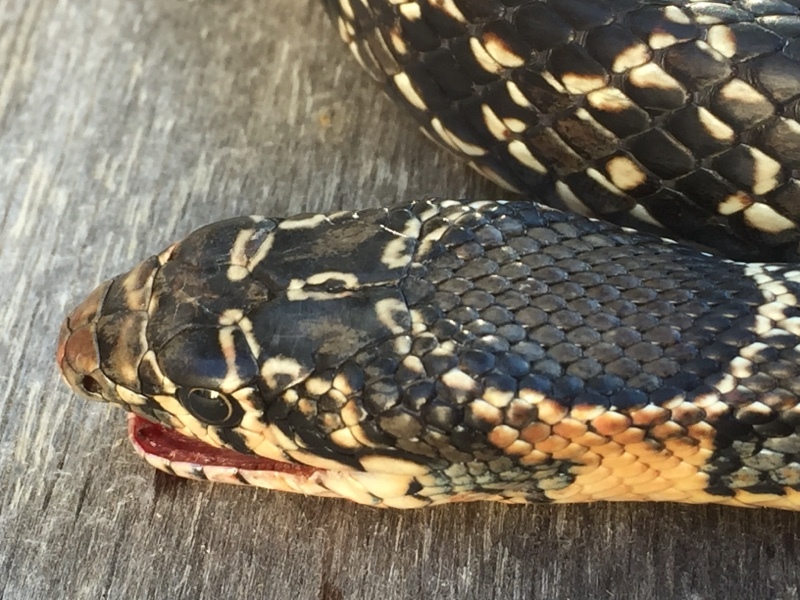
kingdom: Animalia
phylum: Chordata
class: Squamata
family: Colubridae
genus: Hemorrhois
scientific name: Hemorrhois hippocrepis
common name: Horseshoe whip snake
